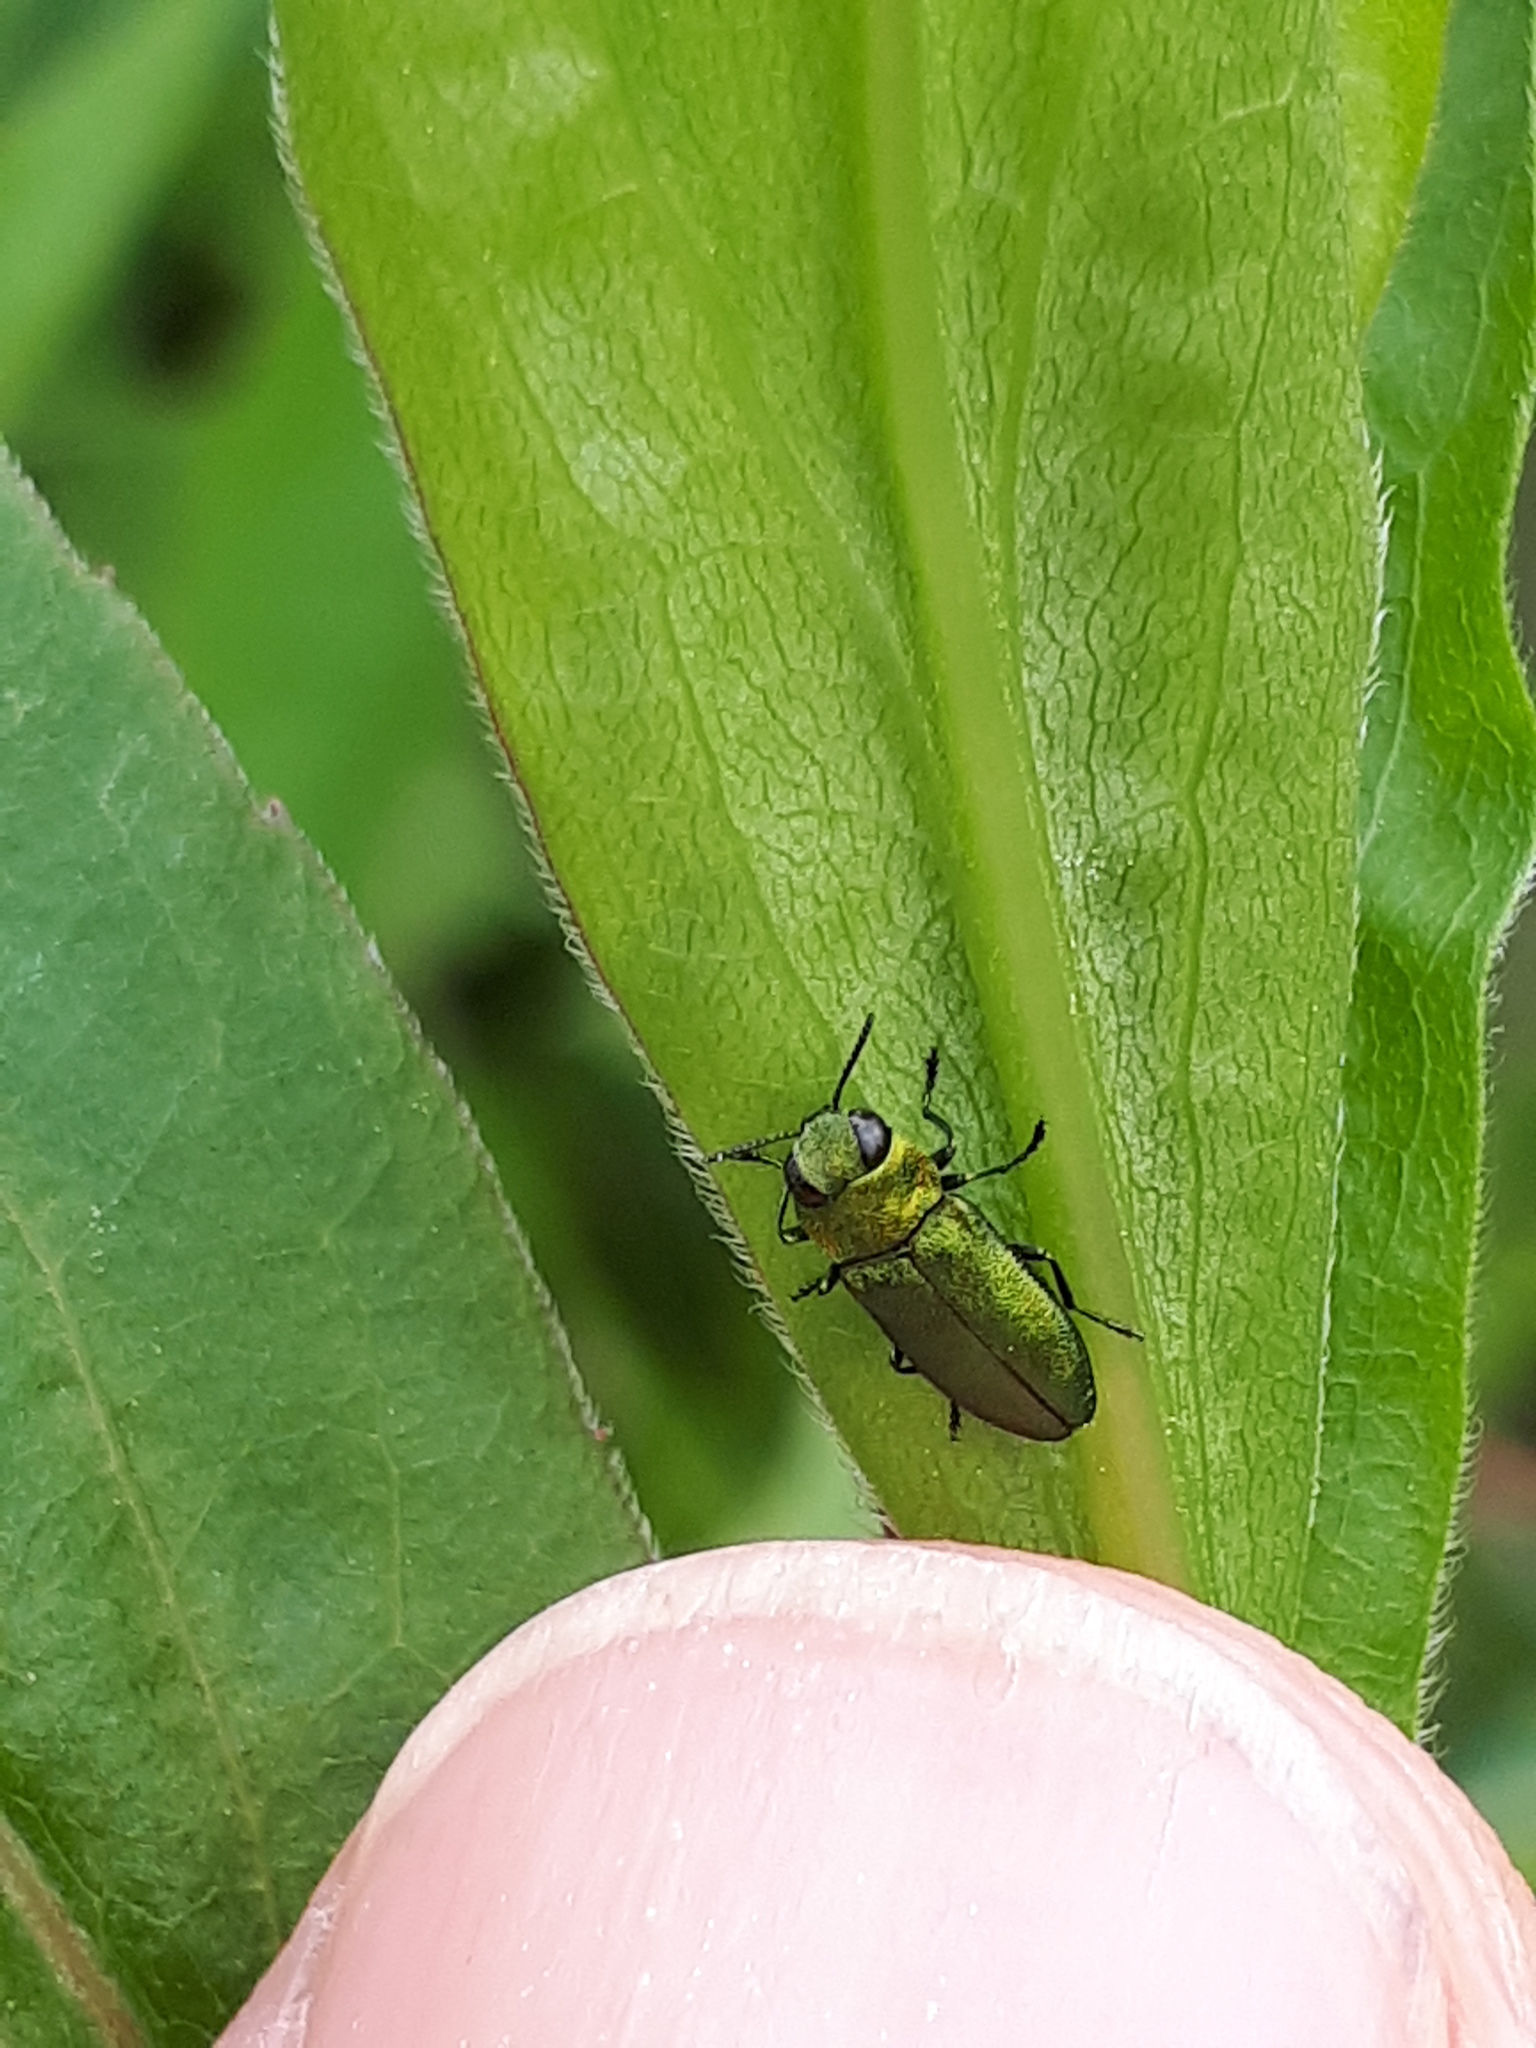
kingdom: Animalia
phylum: Arthropoda
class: Insecta
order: Coleoptera
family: Buprestidae
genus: Anthaxia
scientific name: Anthaxia nitidula
